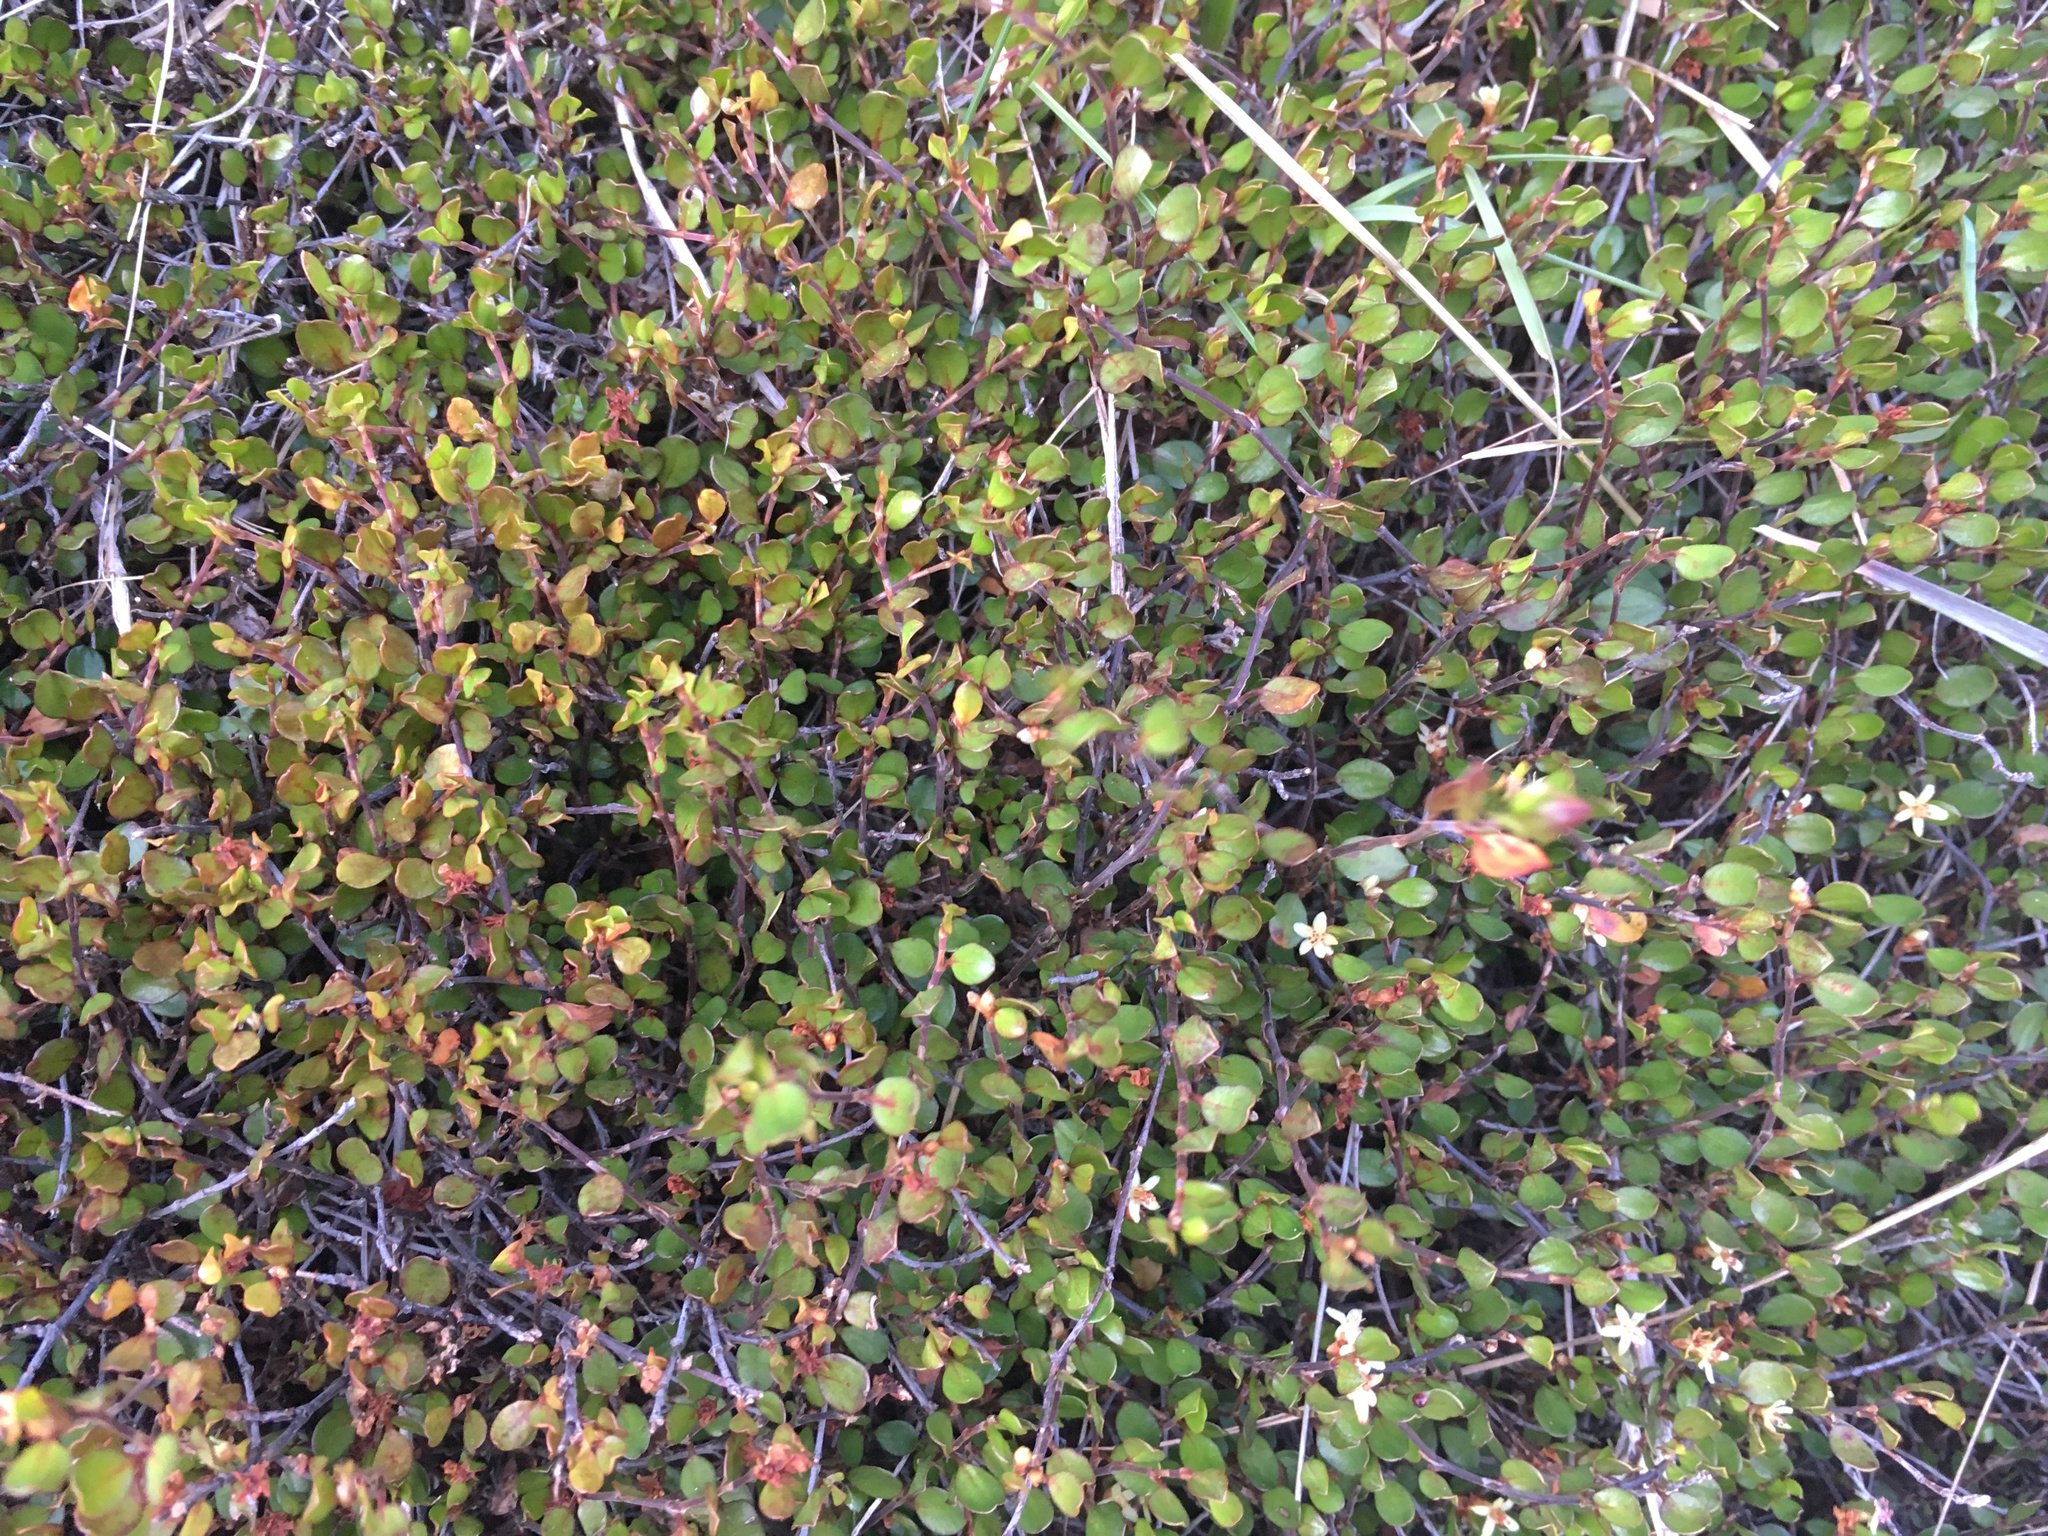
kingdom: Plantae
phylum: Tracheophyta
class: Magnoliopsida
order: Caryophyllales
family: Polygonaceae
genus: Muehlenbeckia
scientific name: Muehlenbeckia axillaris
